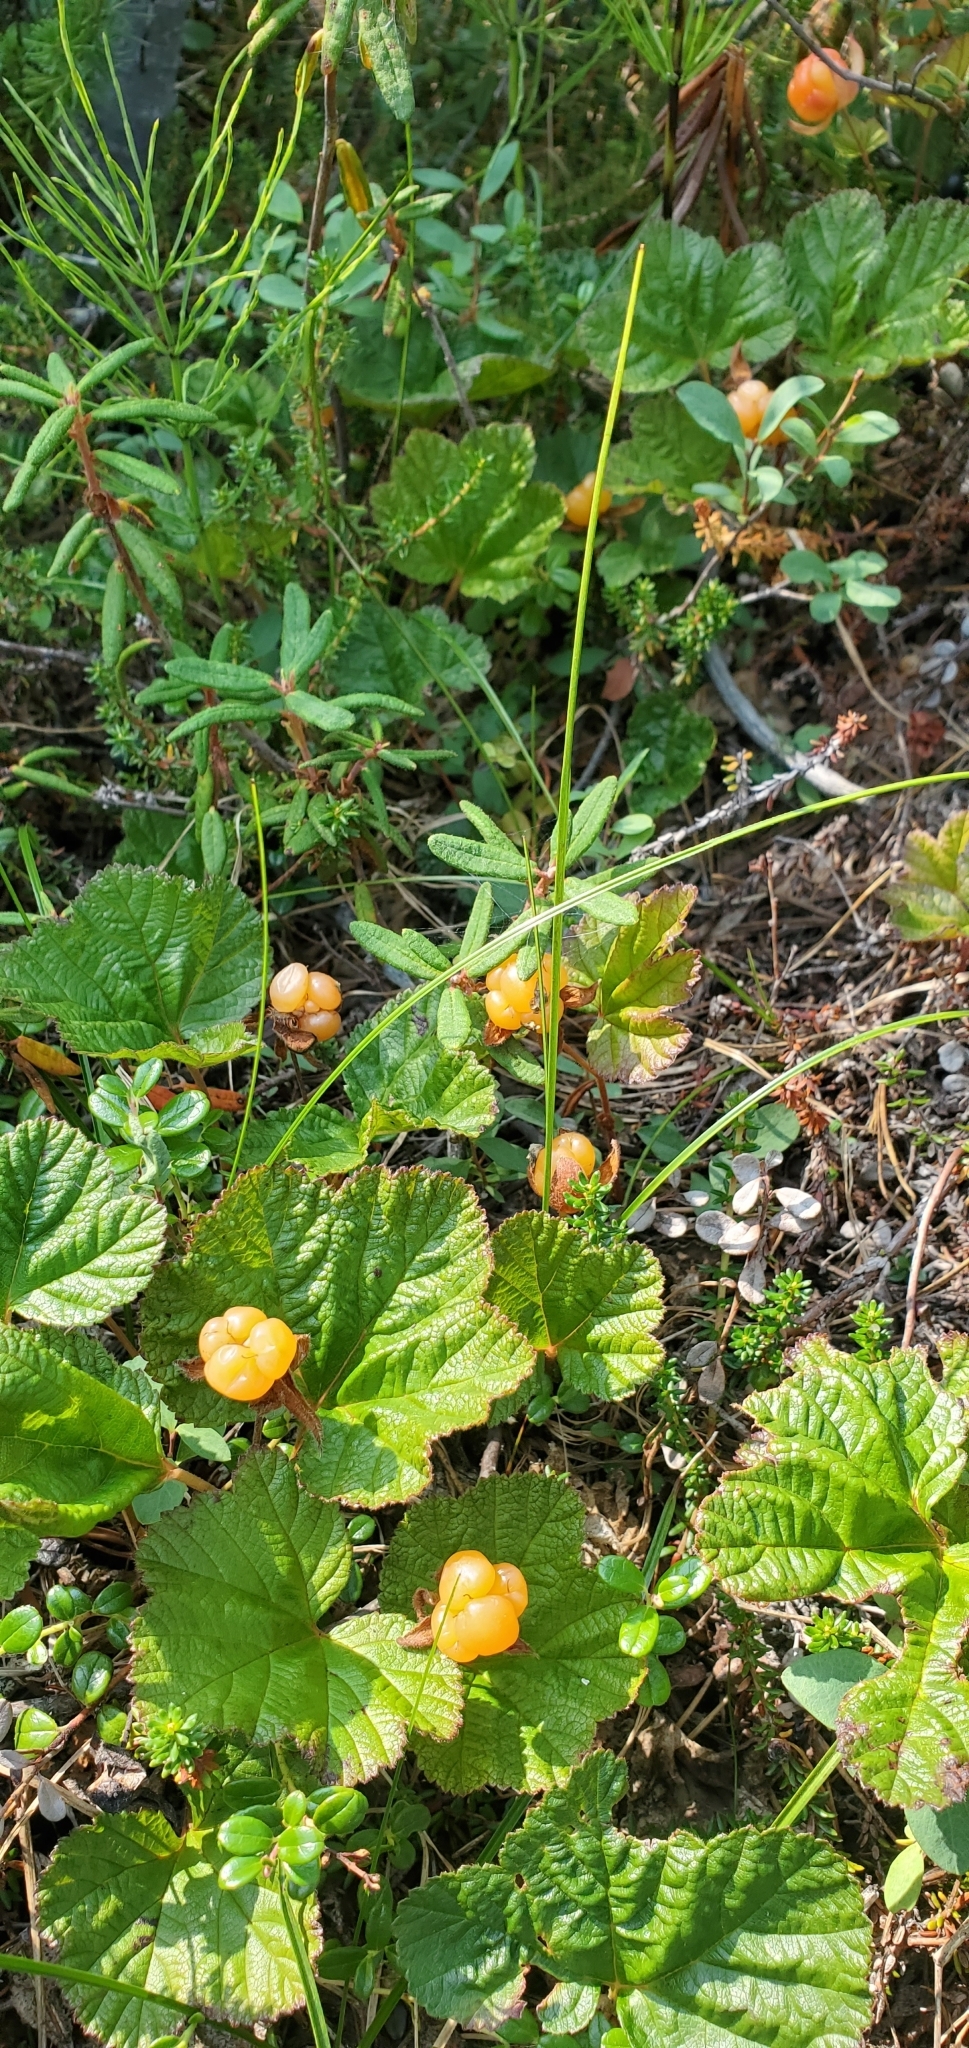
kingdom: Plantae
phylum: Tracheophyta
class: Magnoliopsida
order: Rosales
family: Rosaceae
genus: Rubus
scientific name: Rubus chamaemorus
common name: Cloudberry
